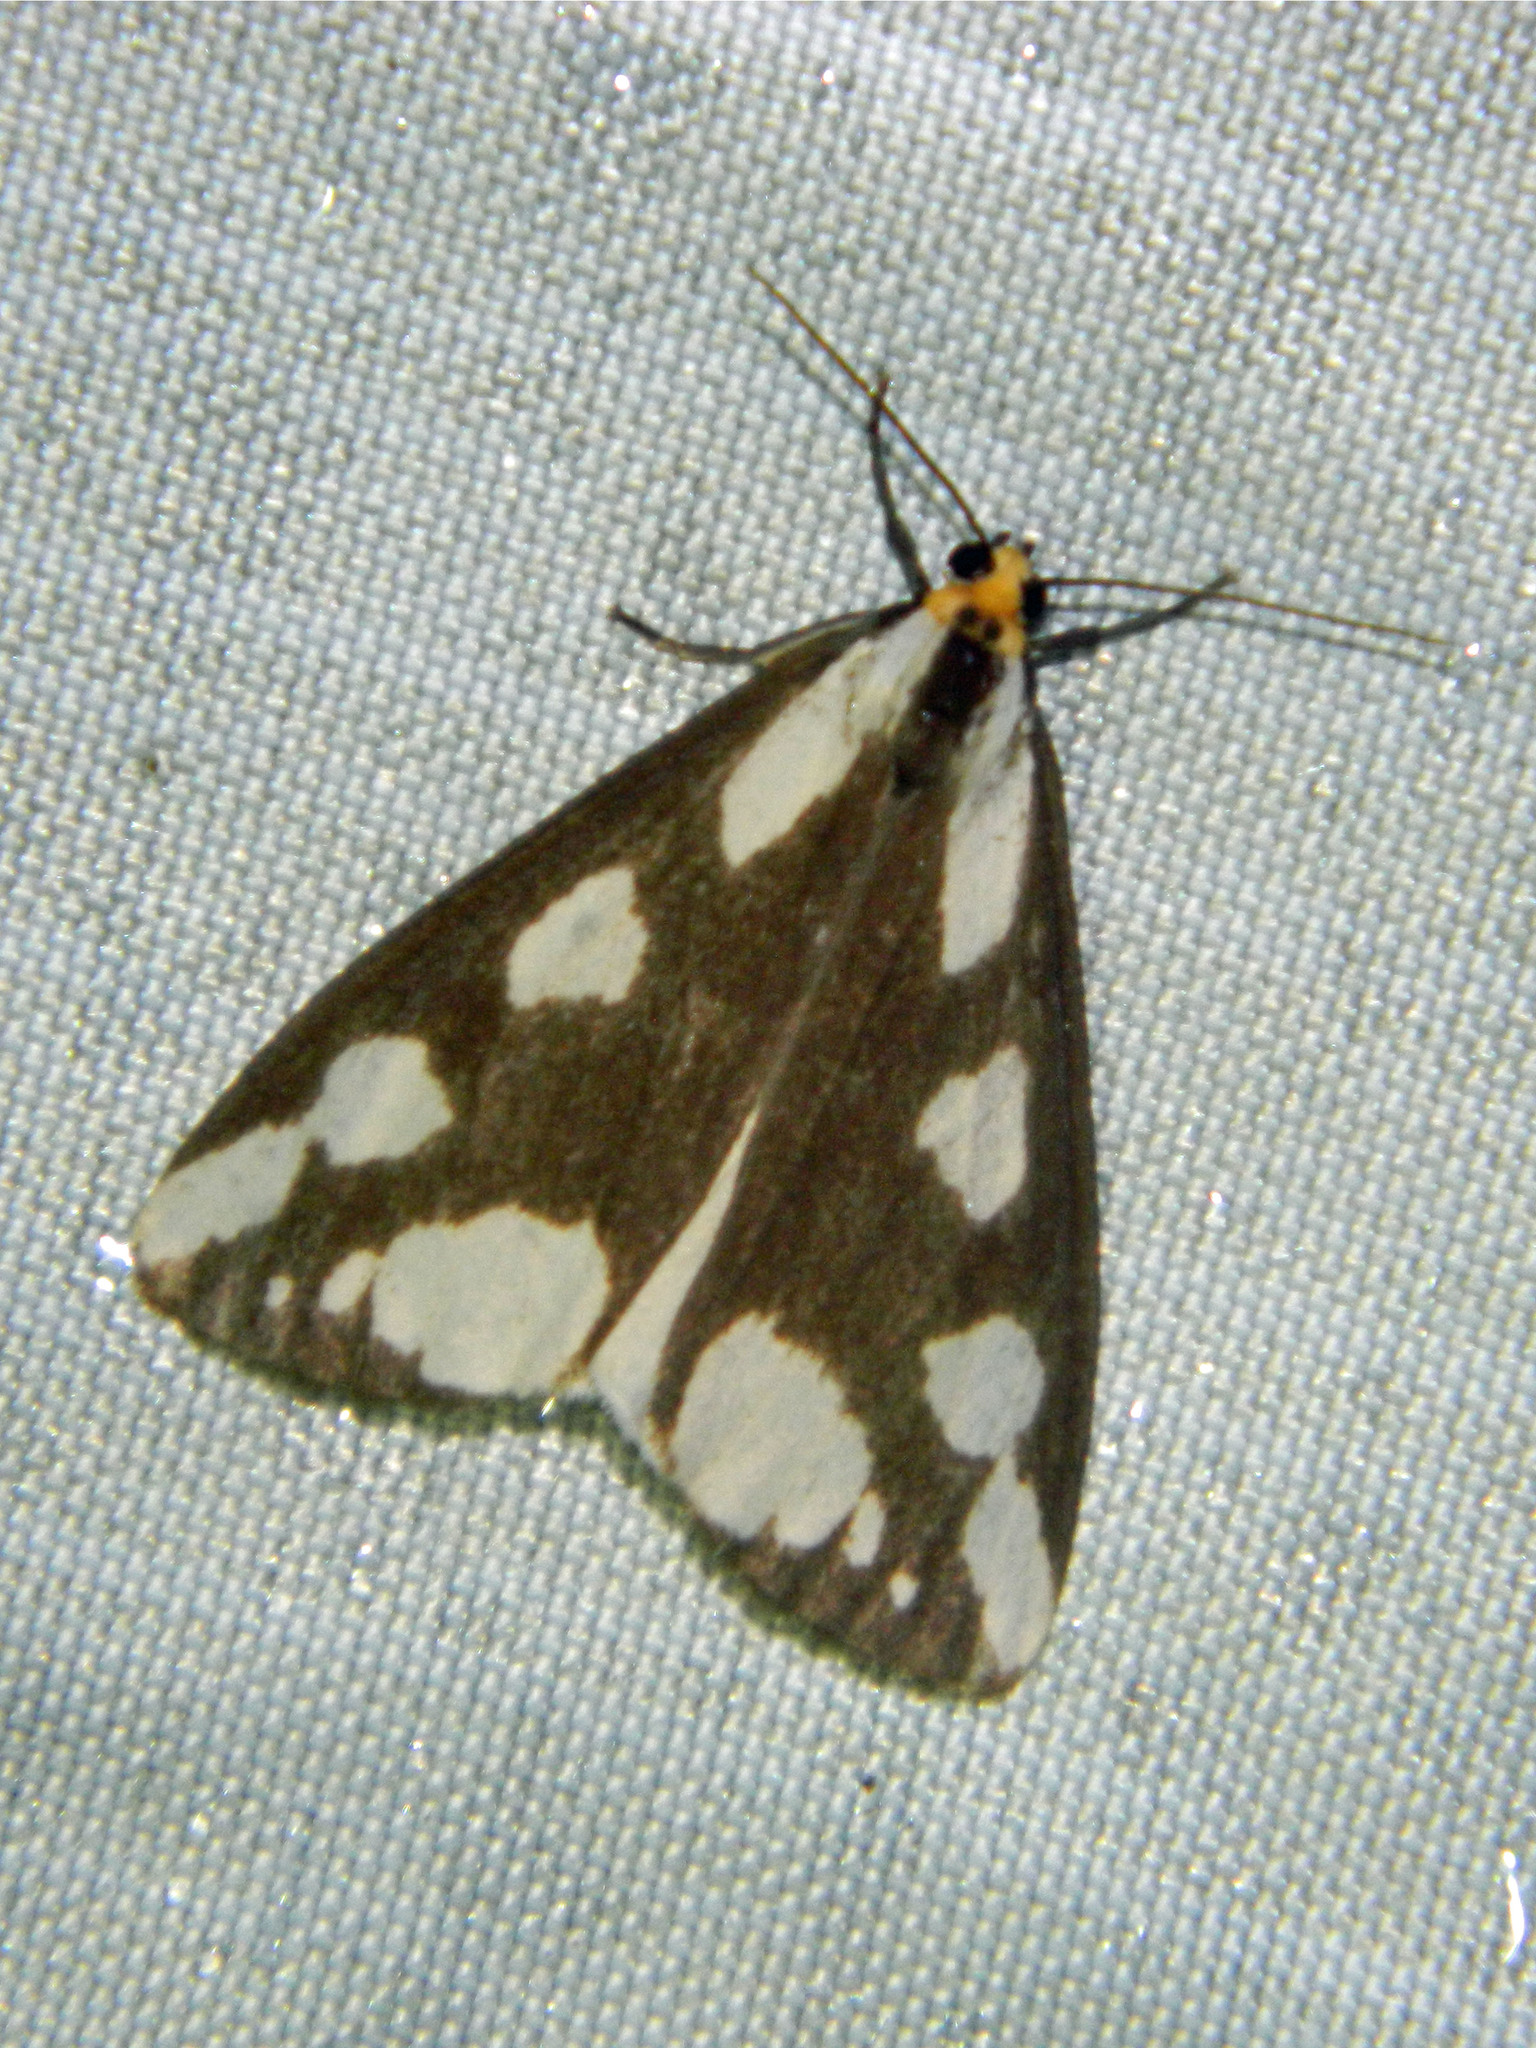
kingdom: Animalia
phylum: Arthropoda
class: Insecta
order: Lepidoptera
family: Erebidae
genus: Haploa
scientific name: Haploa lecontei
